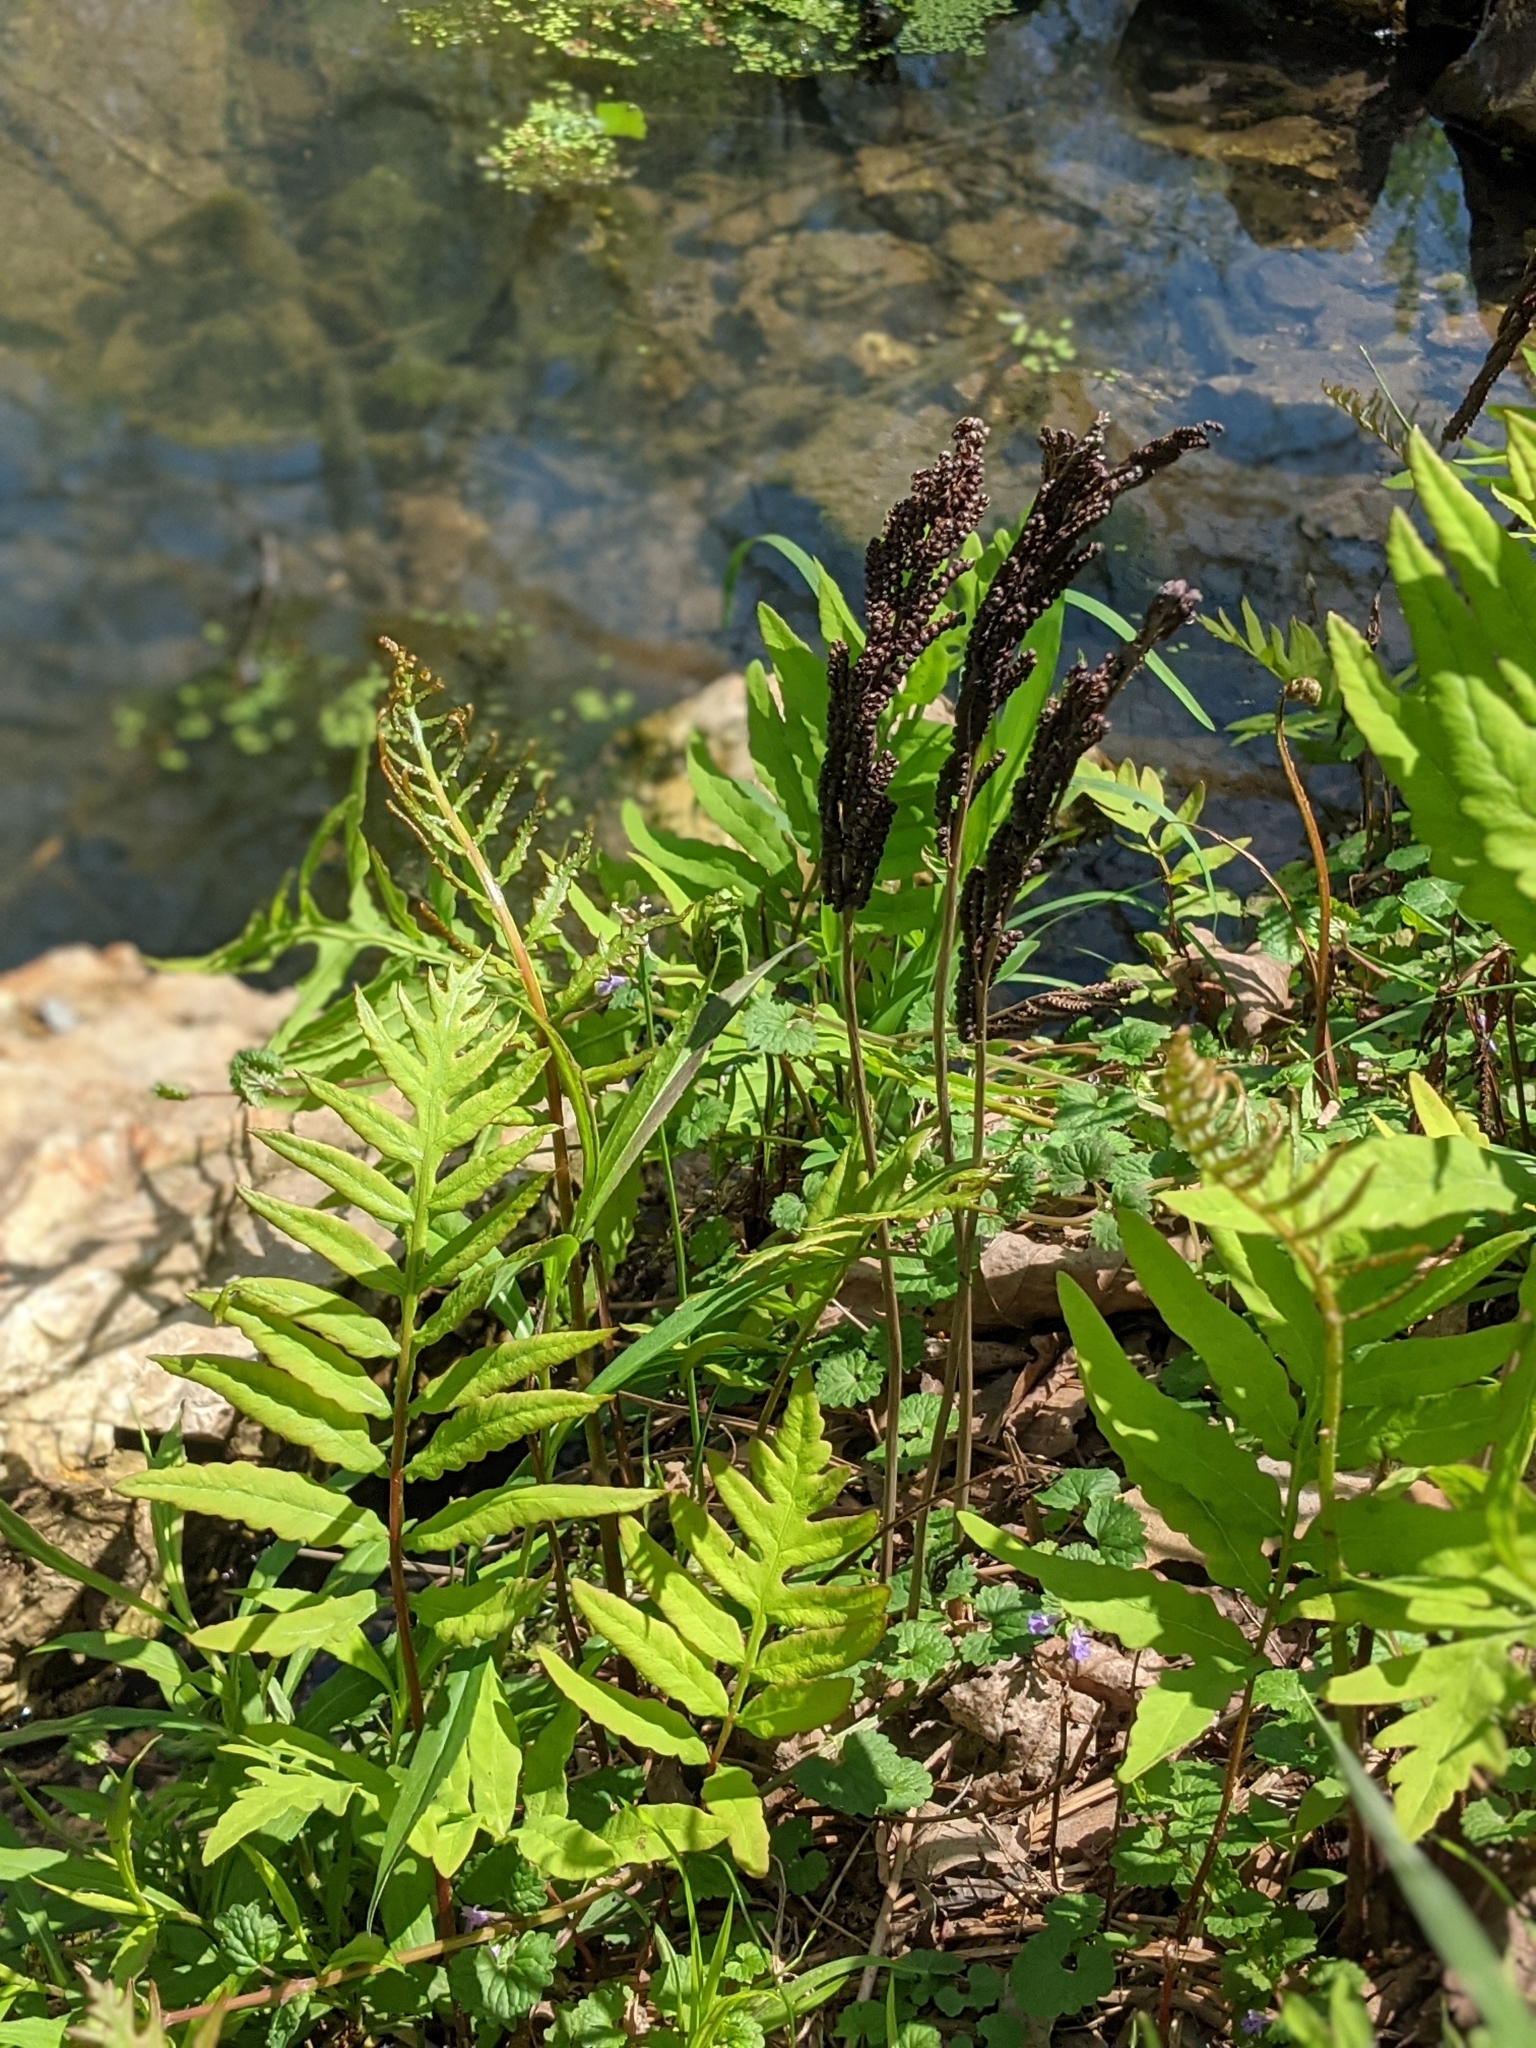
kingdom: Plantae
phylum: Tracheophyta
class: Polypodiopsida
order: Polypodiales
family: Onocleaceae
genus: Onoclea
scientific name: Onoclea sensibilis
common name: Sensitive fern
